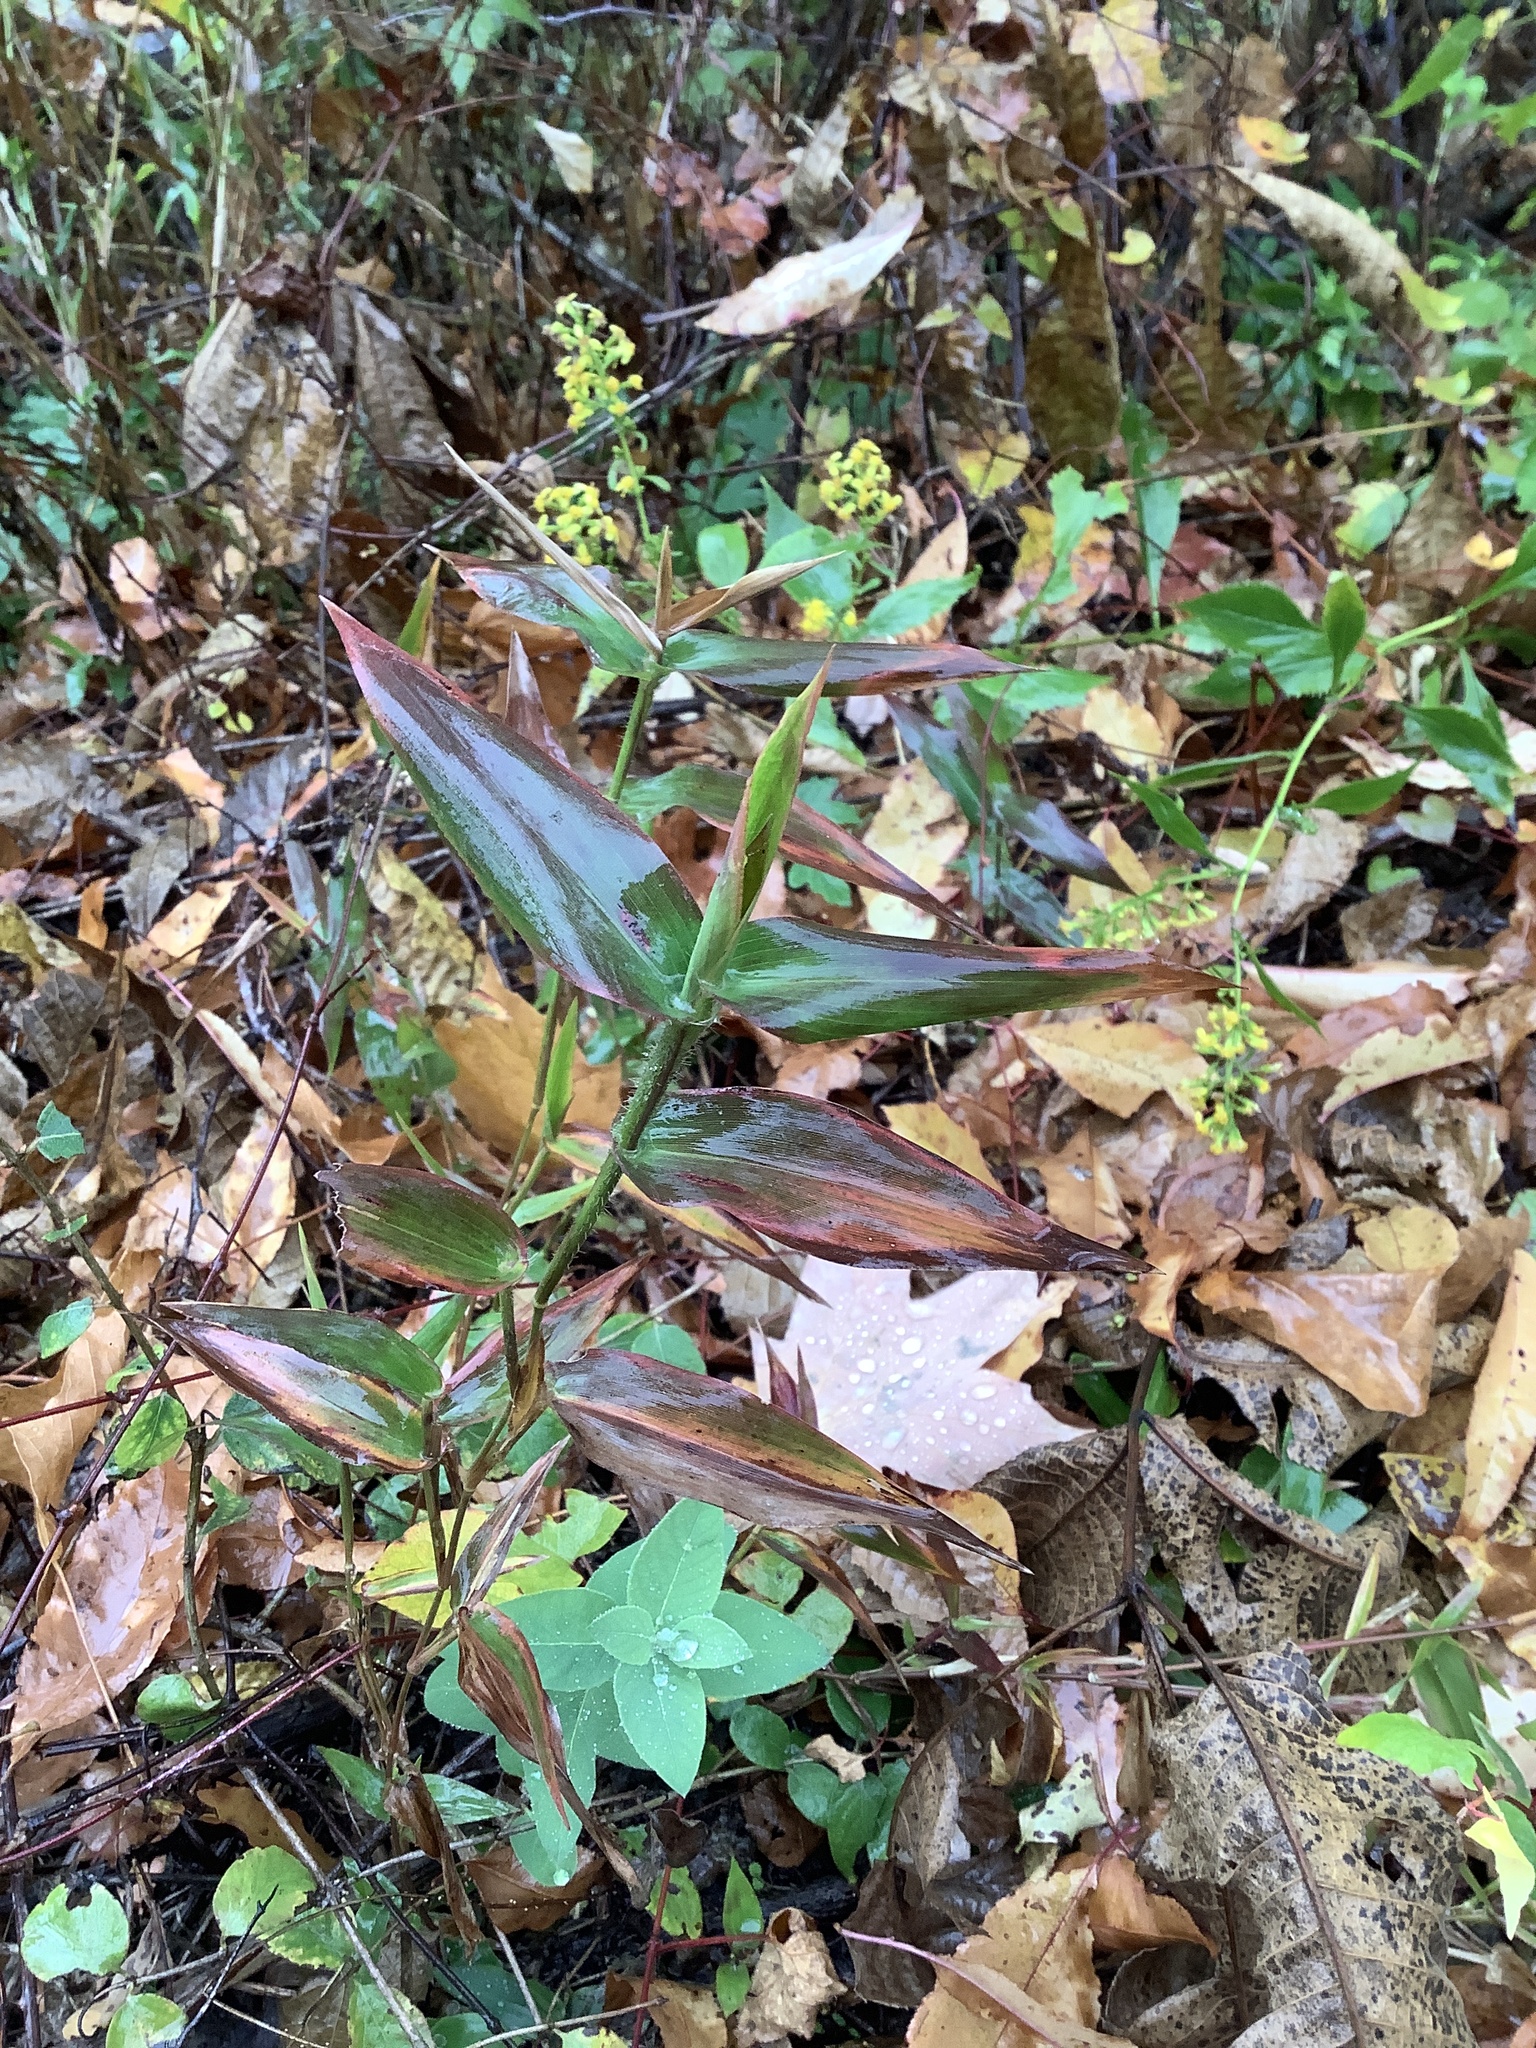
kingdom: Plantae
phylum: Tracheophyta
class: Liliopsida
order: Poales
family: Poaceae
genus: Dichanthelium
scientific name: Dichanthelium clandestinum
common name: Deer-tongue grass
